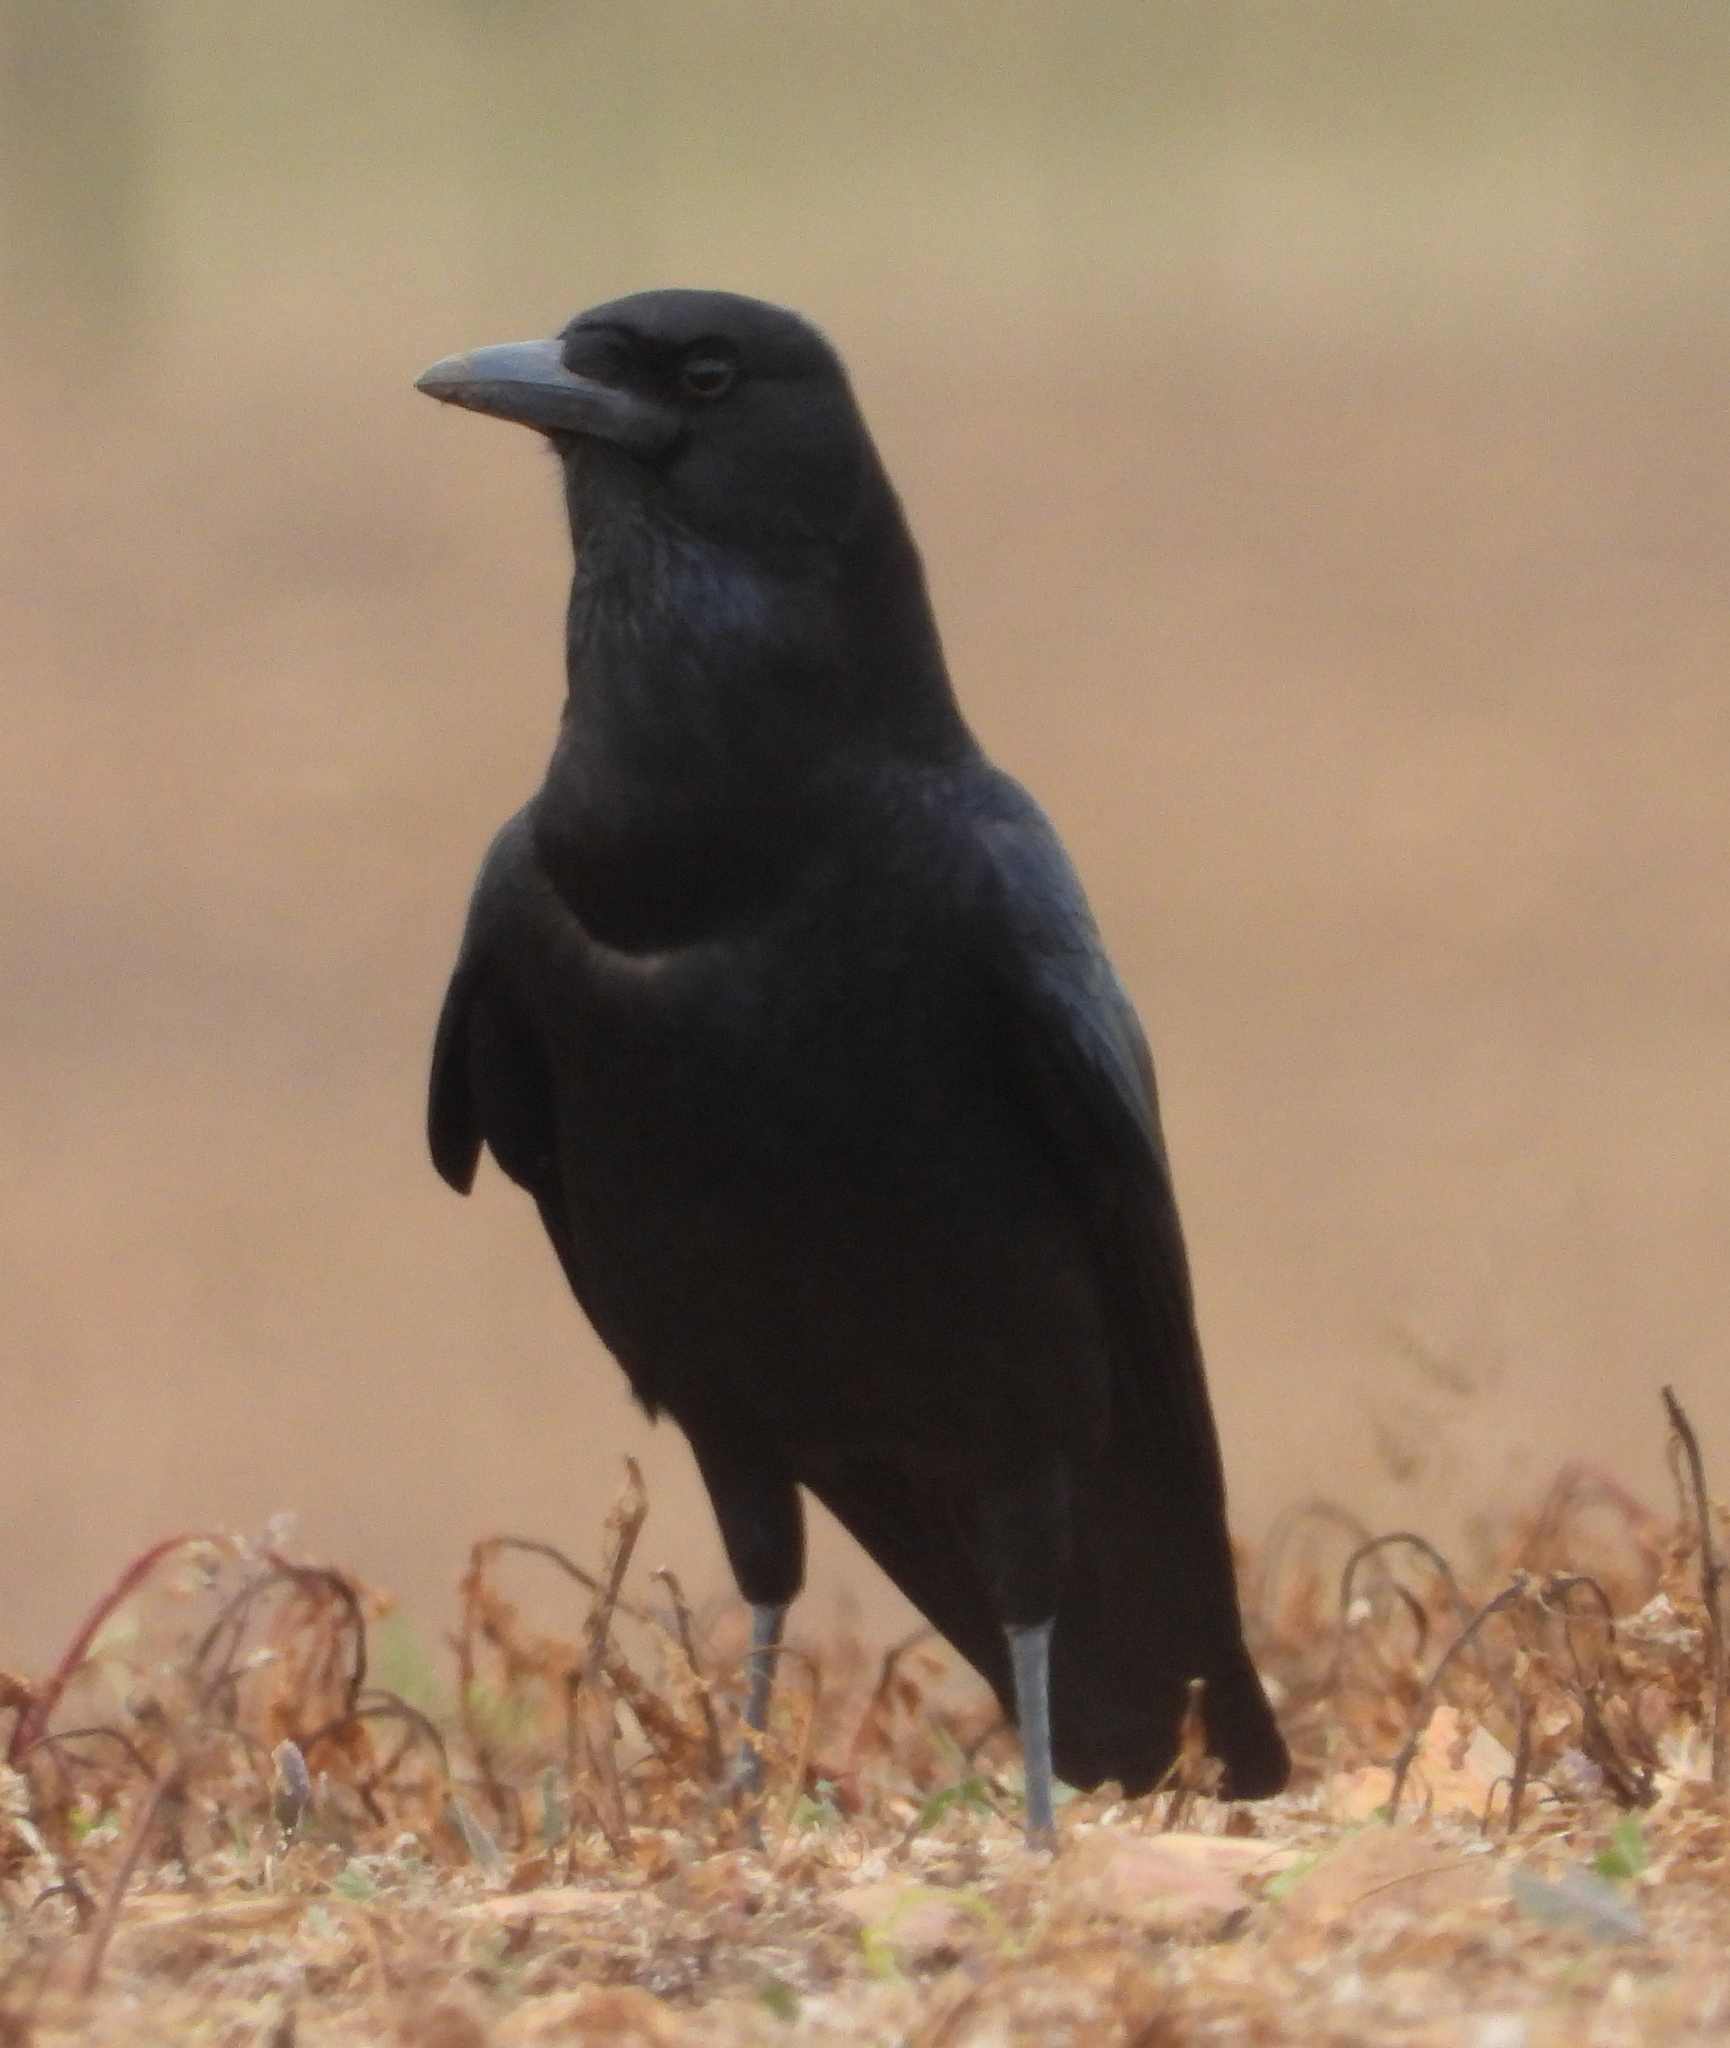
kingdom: Animalia
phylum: Chordata
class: Aves
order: Passeriformes
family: Corvidae
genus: Corvus
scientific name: Corvus capensis
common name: Cape crow
